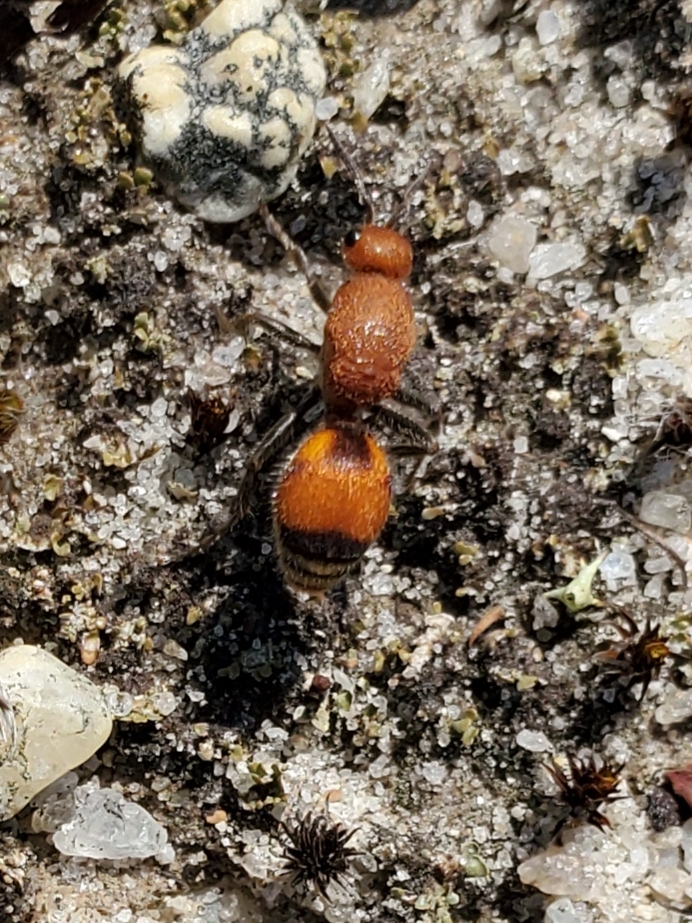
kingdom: Animalia
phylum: Arthropoda
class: Insecta
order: Hymenoptera
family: Mutillidae
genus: Dasymutilla
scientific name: Dasymutilla
